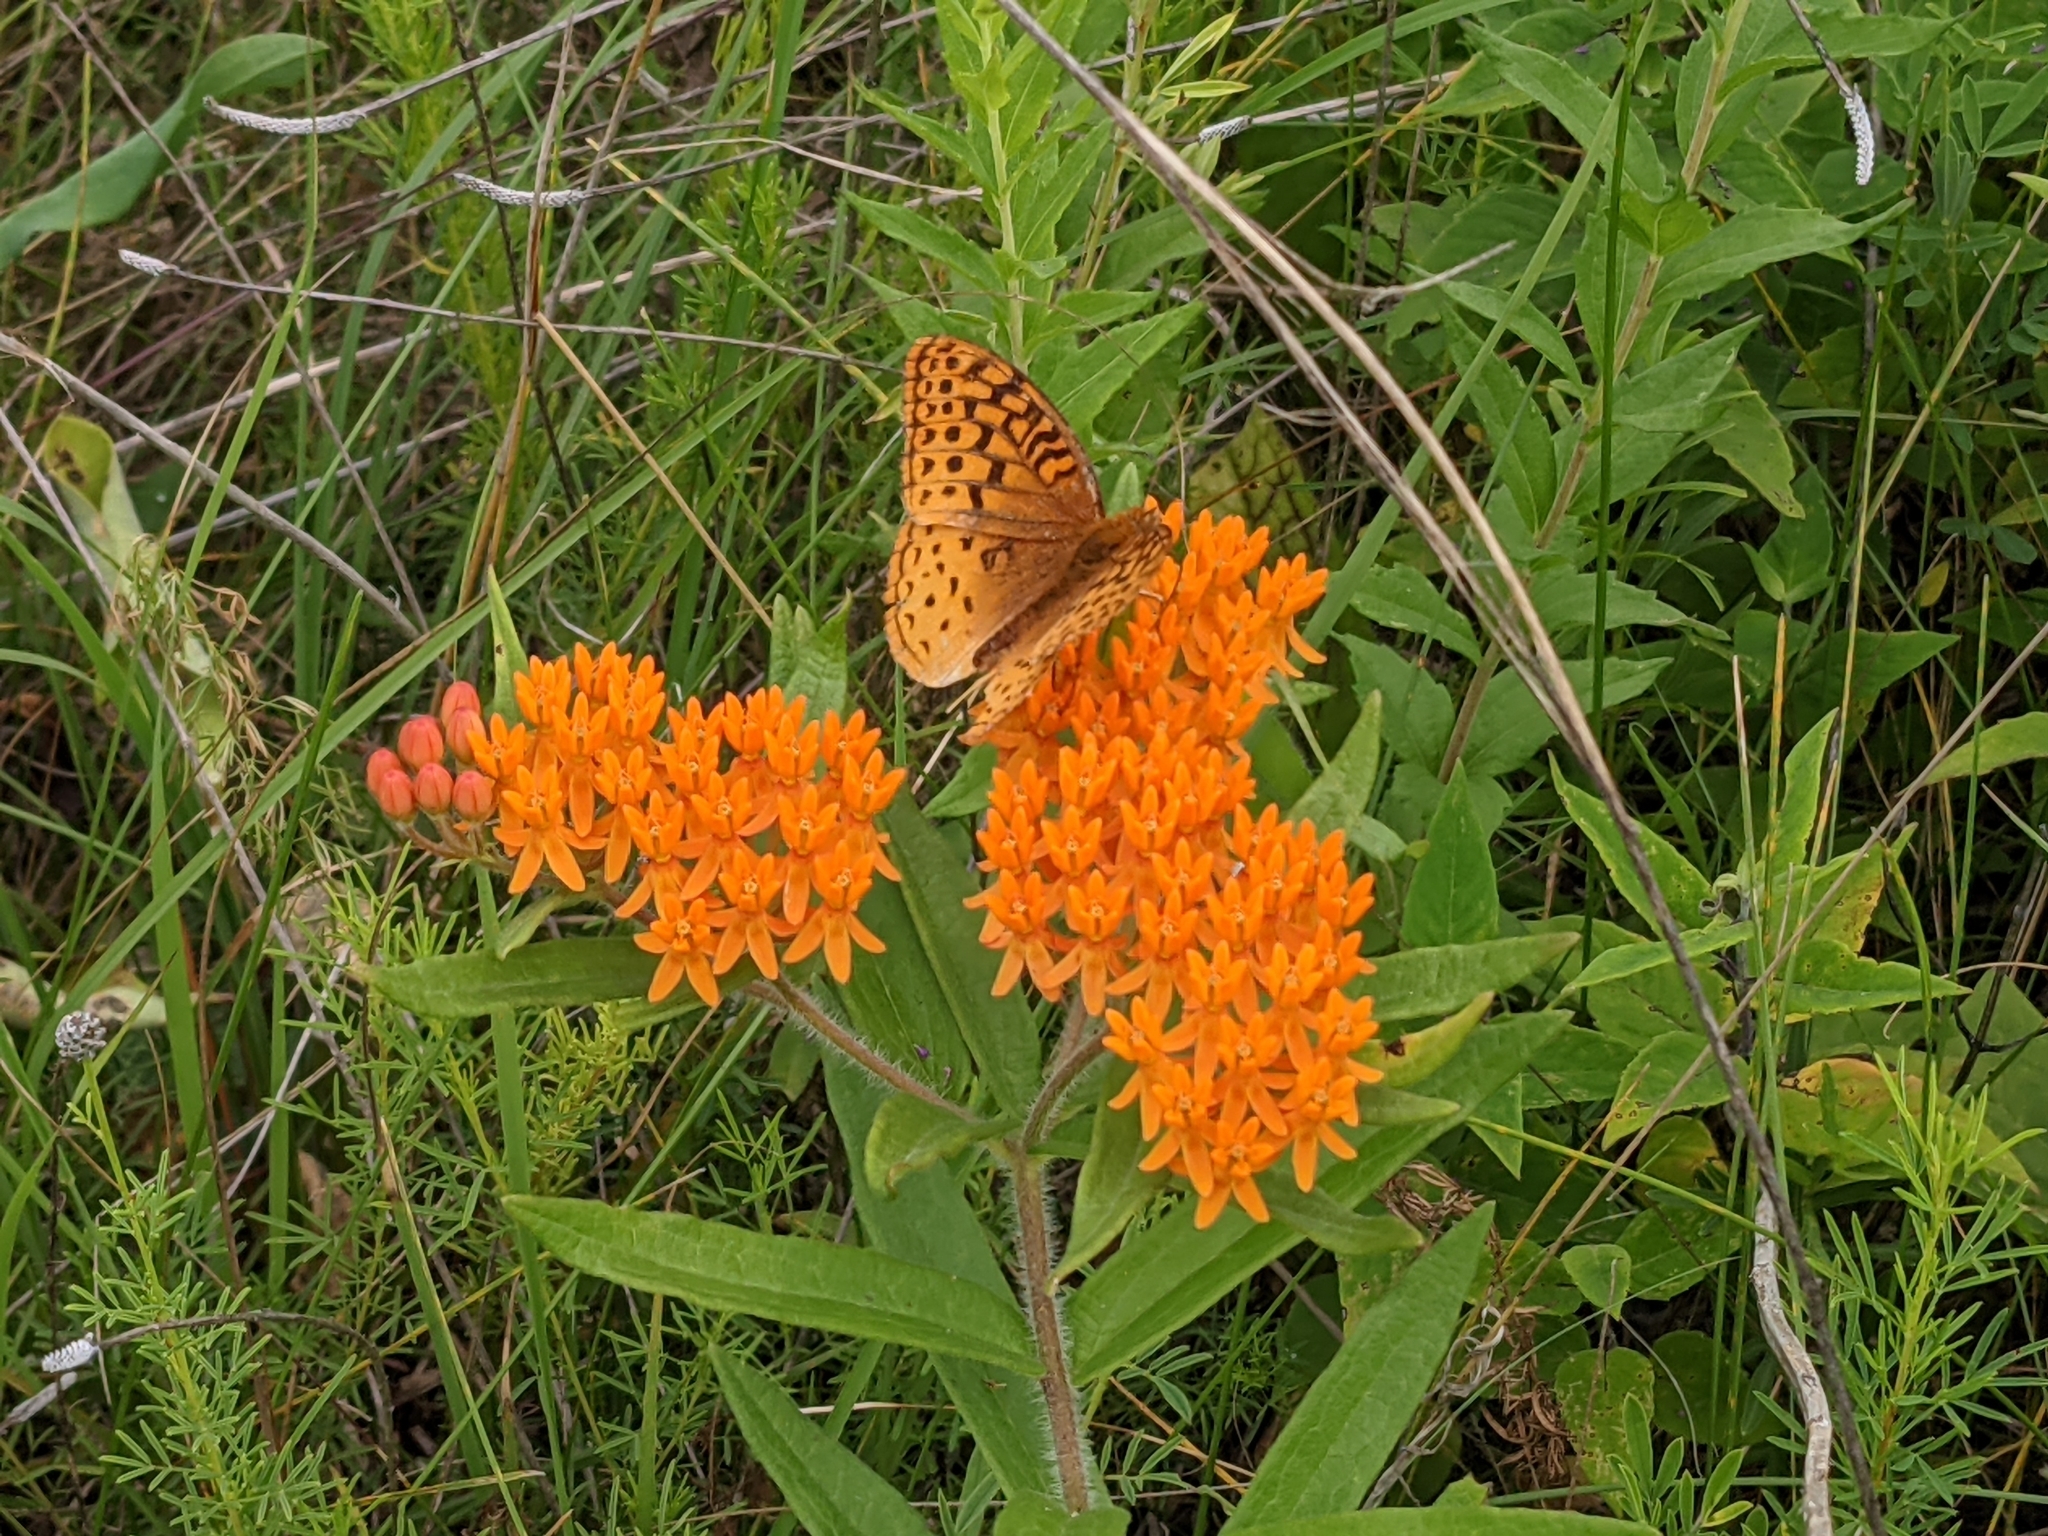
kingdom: Animalia
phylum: Arthropoda
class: Insecta
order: Lepidoptera
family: Nymphalidae
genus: Speyeria
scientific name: Speyeria cybele
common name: Great spangled fritillary
